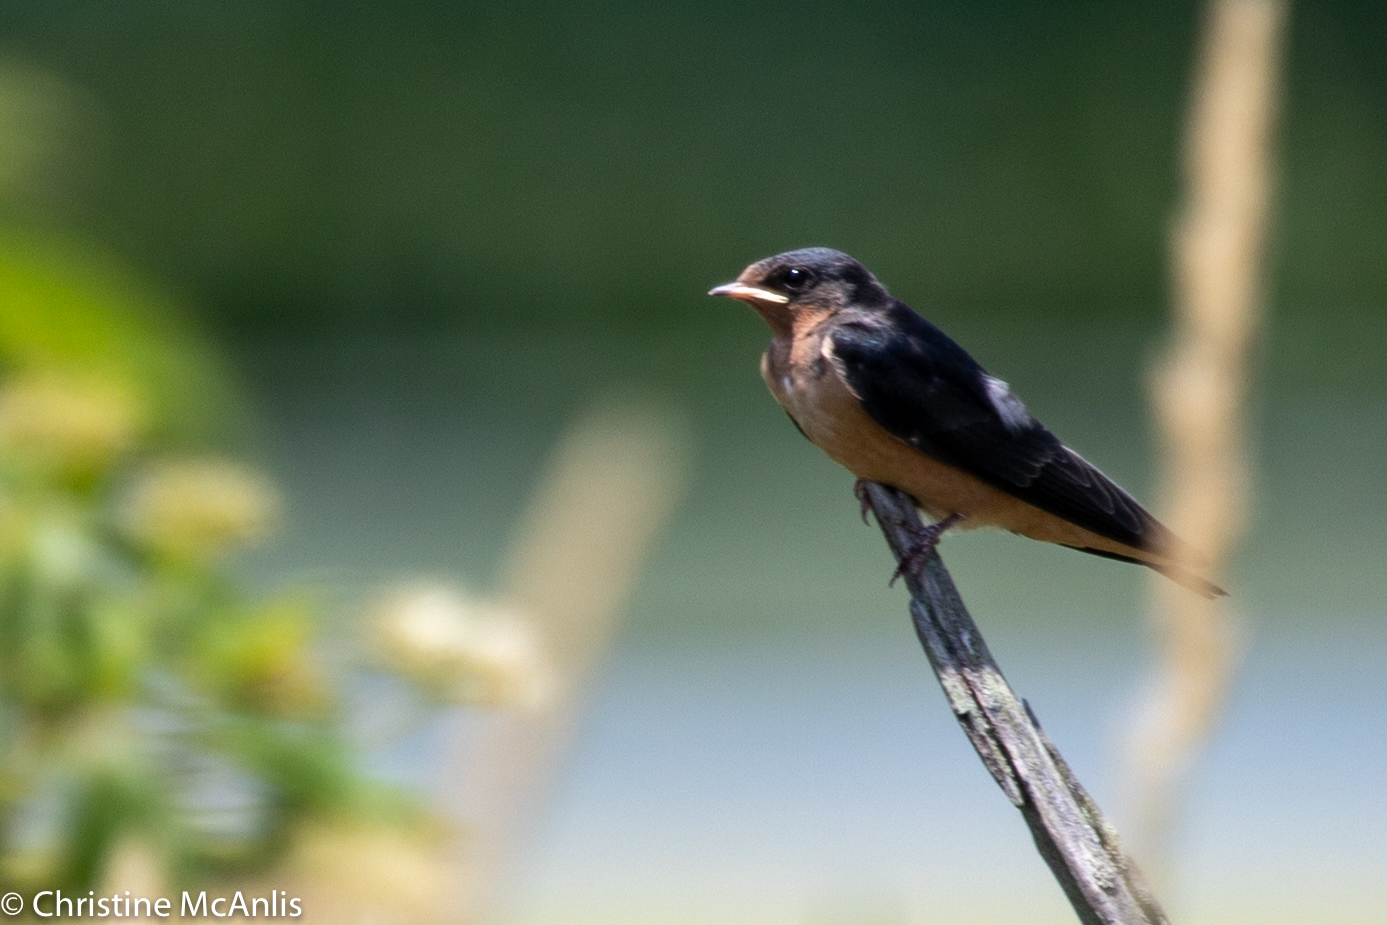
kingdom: Animalia
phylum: Chordata
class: Aves
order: Passeriformes
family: Hirundinidae
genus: Hirundo
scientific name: Hirundo rustica
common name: Barn swallow
